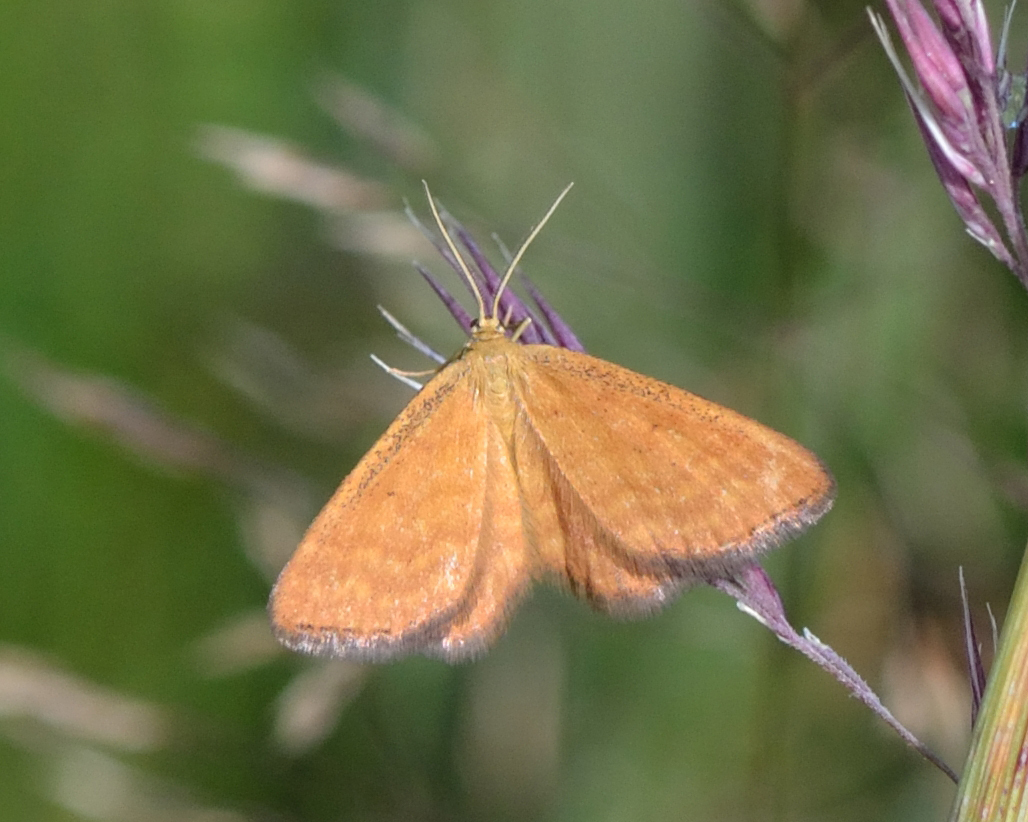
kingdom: Animalia
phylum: Arthropoda
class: Insecta
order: Lepidoptera
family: Geometridae
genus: Idaea
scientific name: Idaea serpentata
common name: Ochraceous wave
